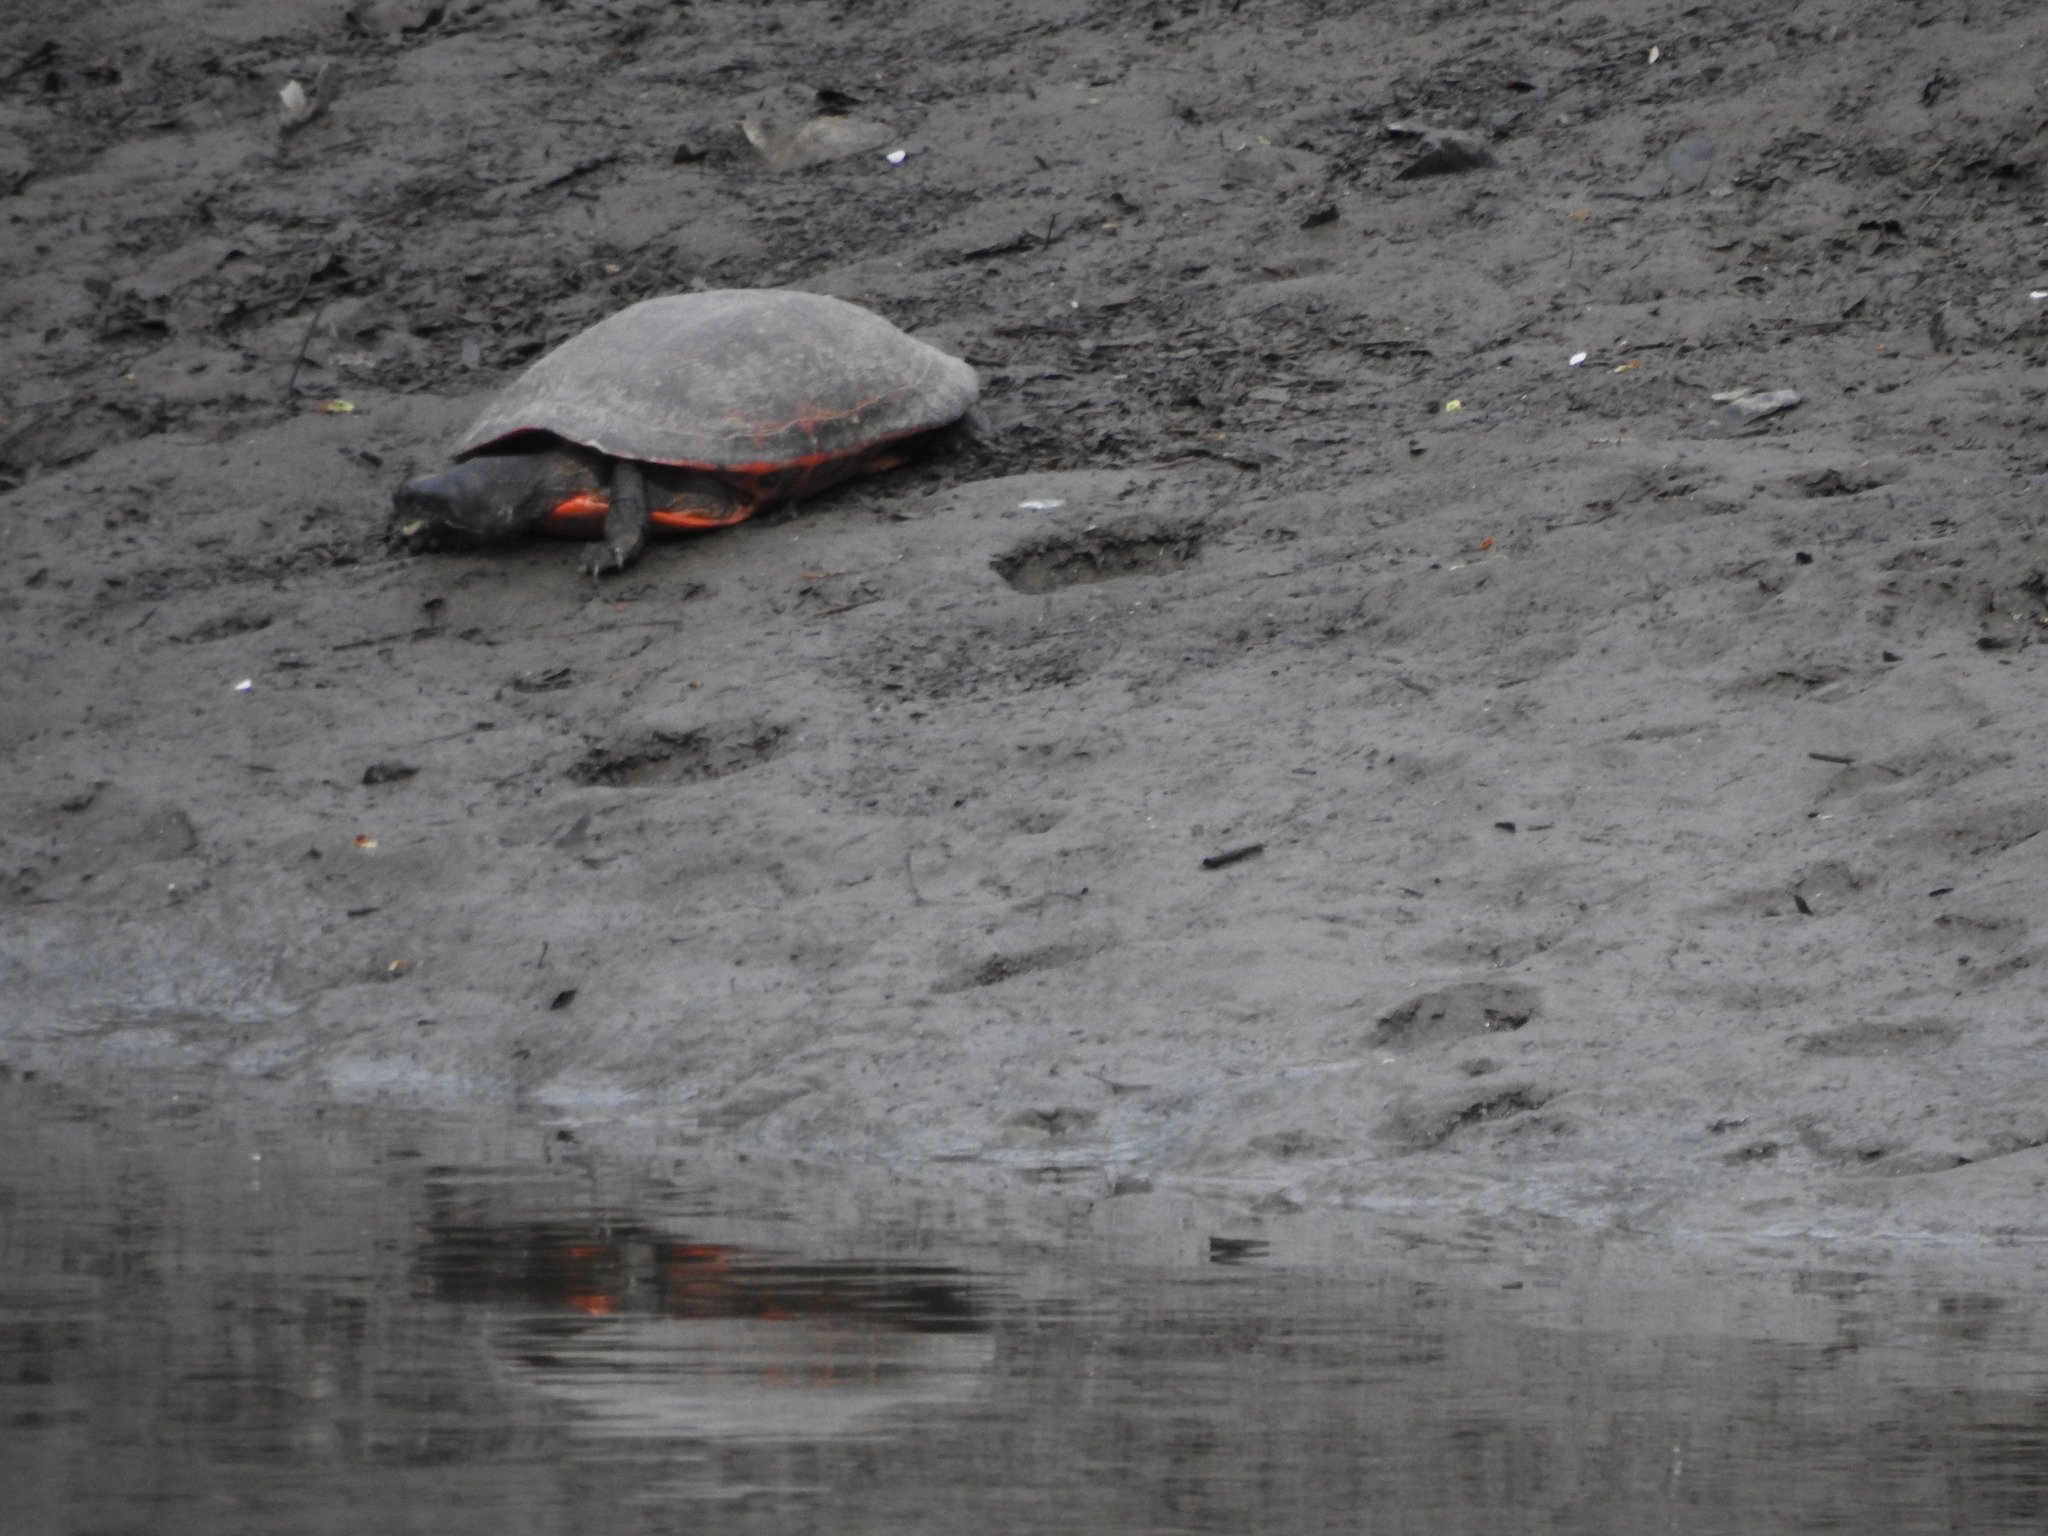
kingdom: Animalia
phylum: Chordata
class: Testudines
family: Emydidae
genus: Pseudemys
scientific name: Pseudemys rubriventris
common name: American red-bellied turtle
